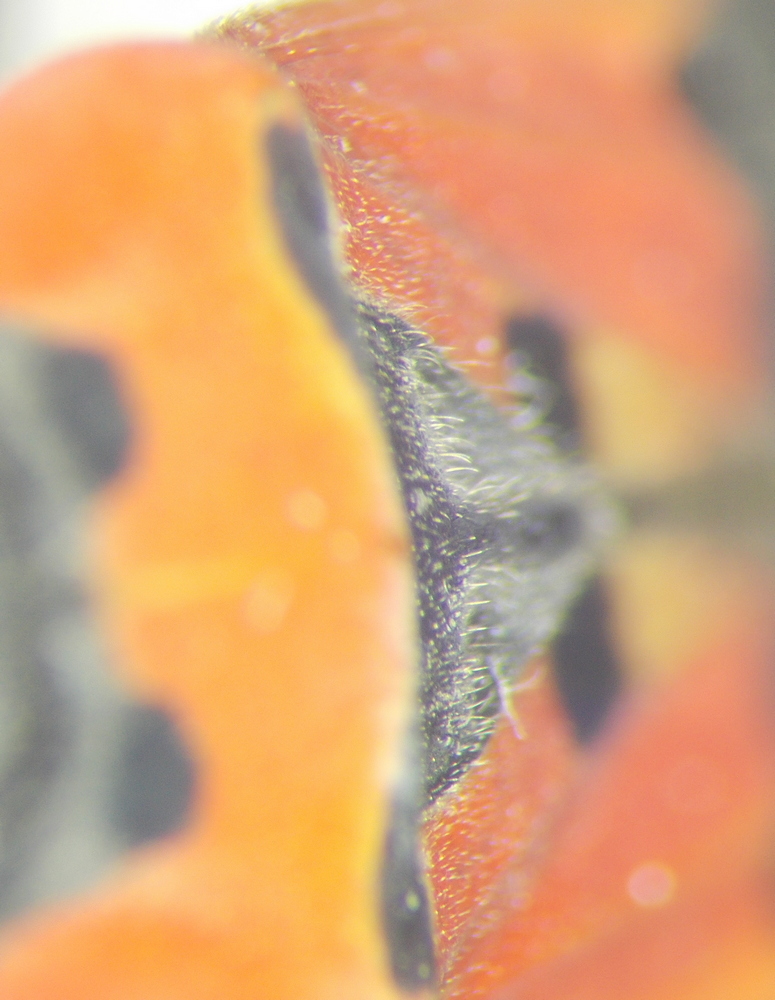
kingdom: Animalia
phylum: Arthropoda
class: Insecta
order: Hemiptera
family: Lygaeidae
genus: Lygaeus
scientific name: Lygaeus simulans
